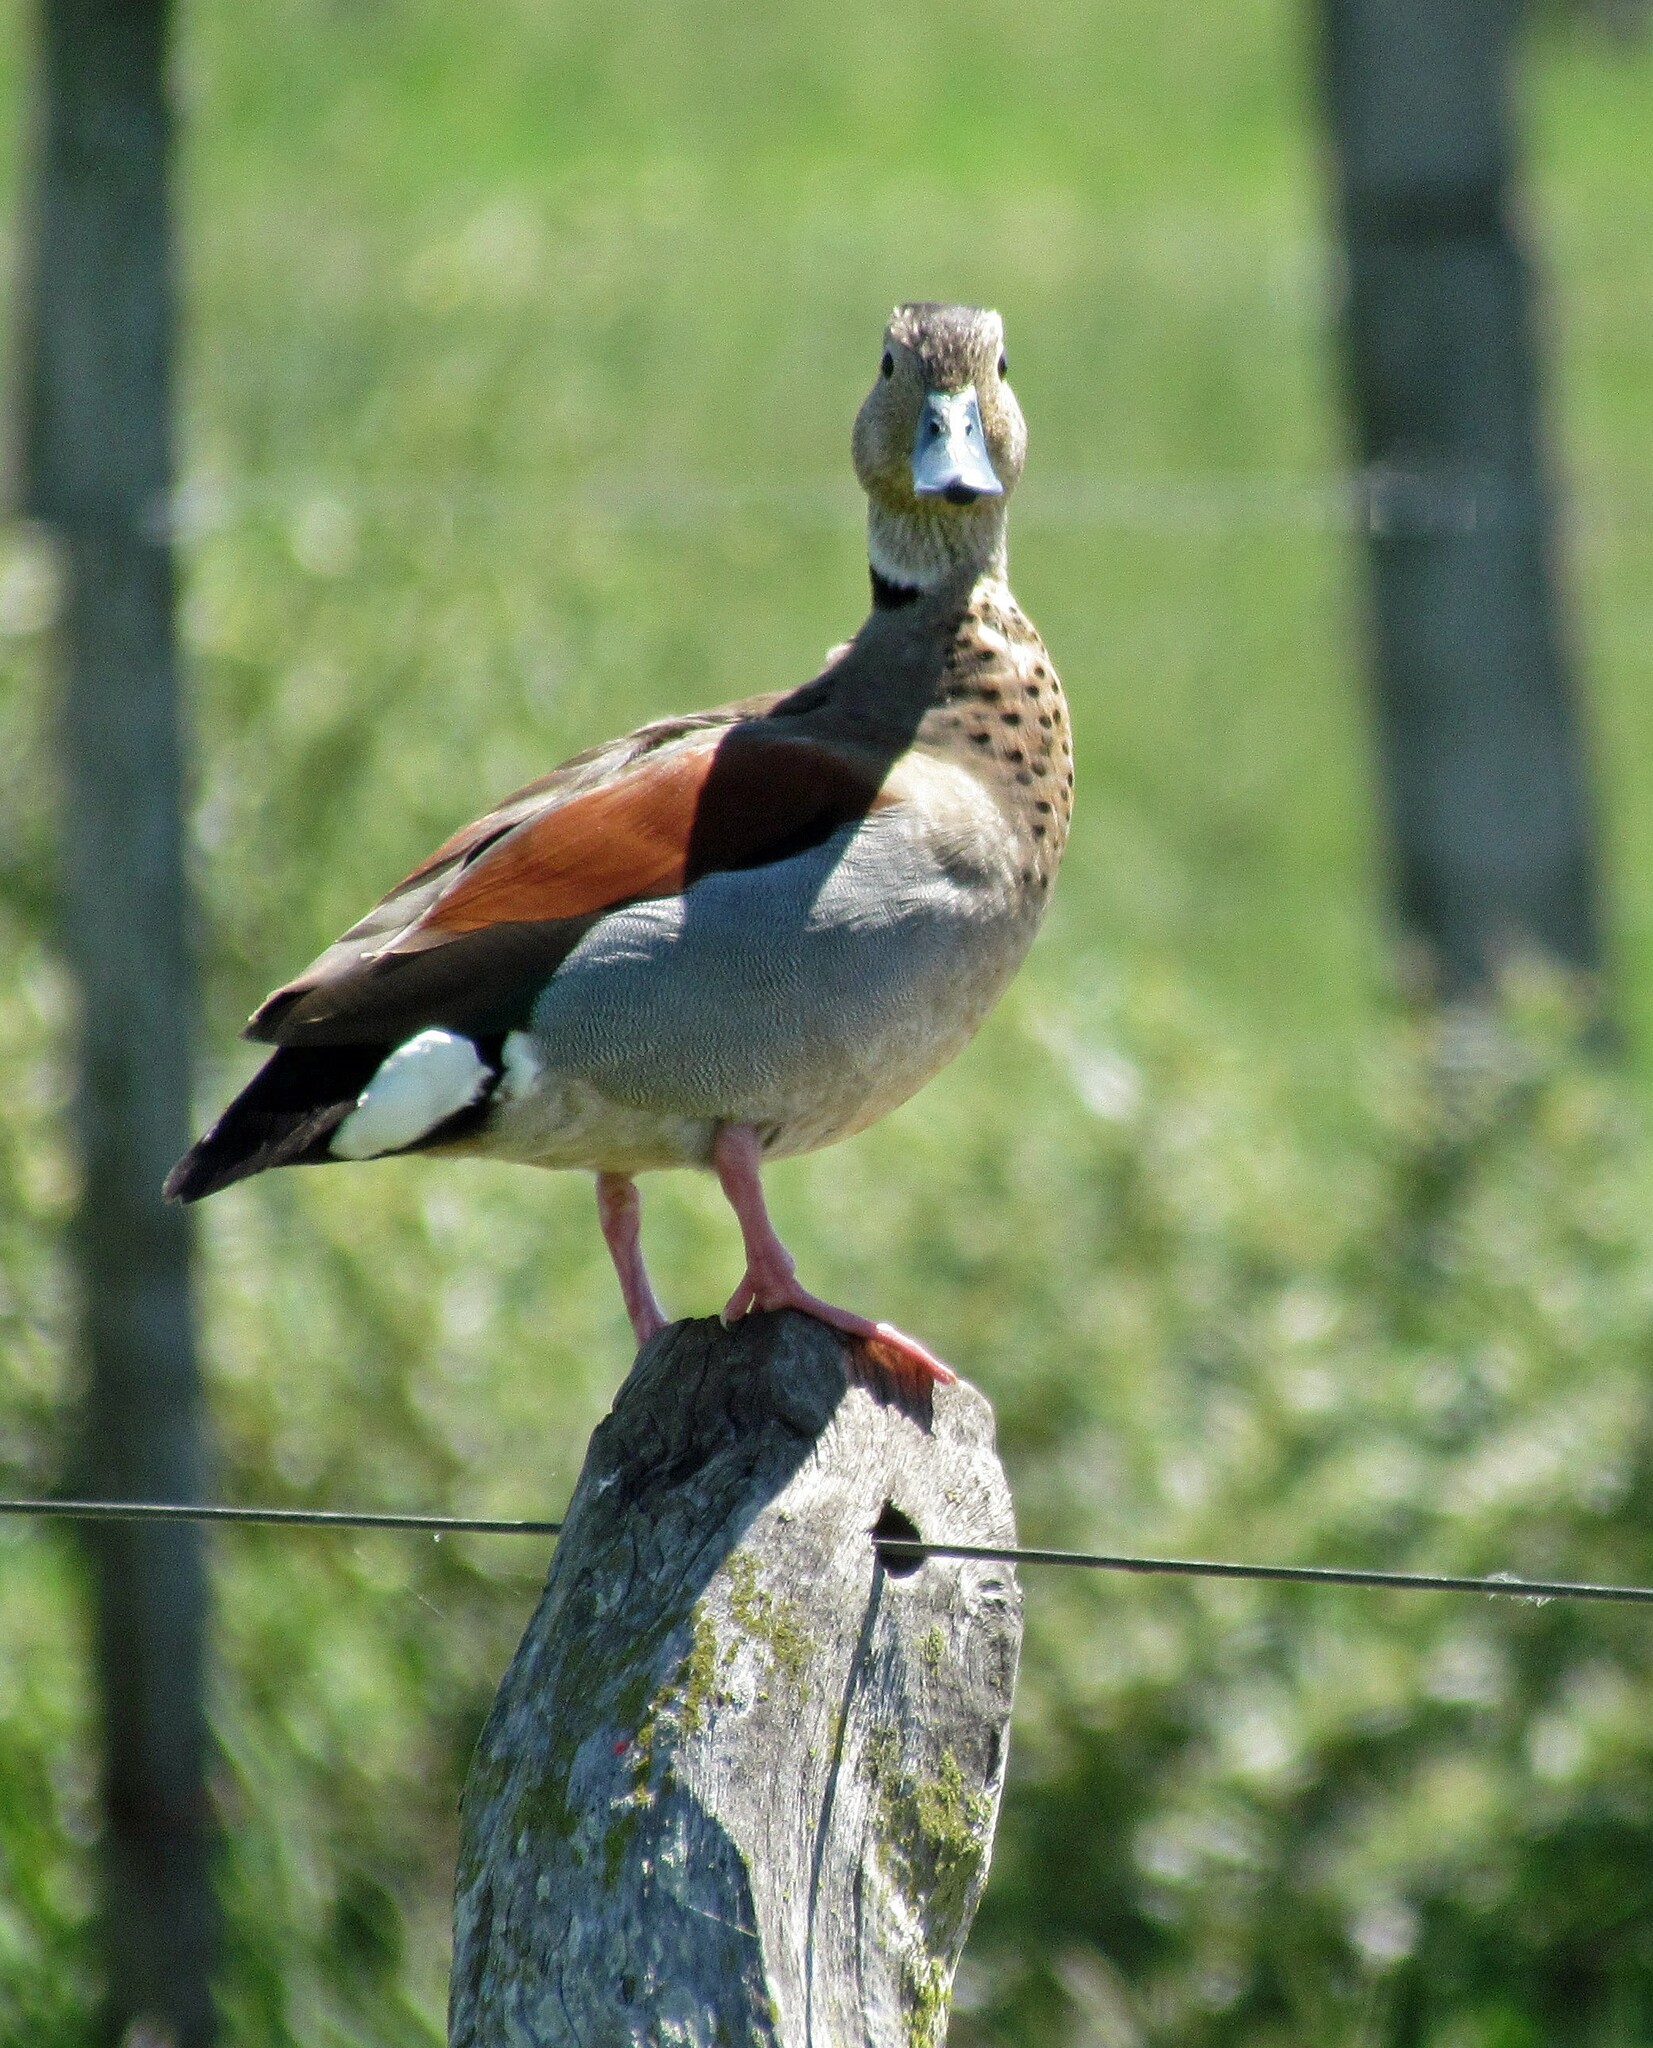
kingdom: Animalia
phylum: Chordata
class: Aves
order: Anseriformes
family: Anatidae
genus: Callonetta
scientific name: Callonetta leucophrys
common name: Ringed teal
